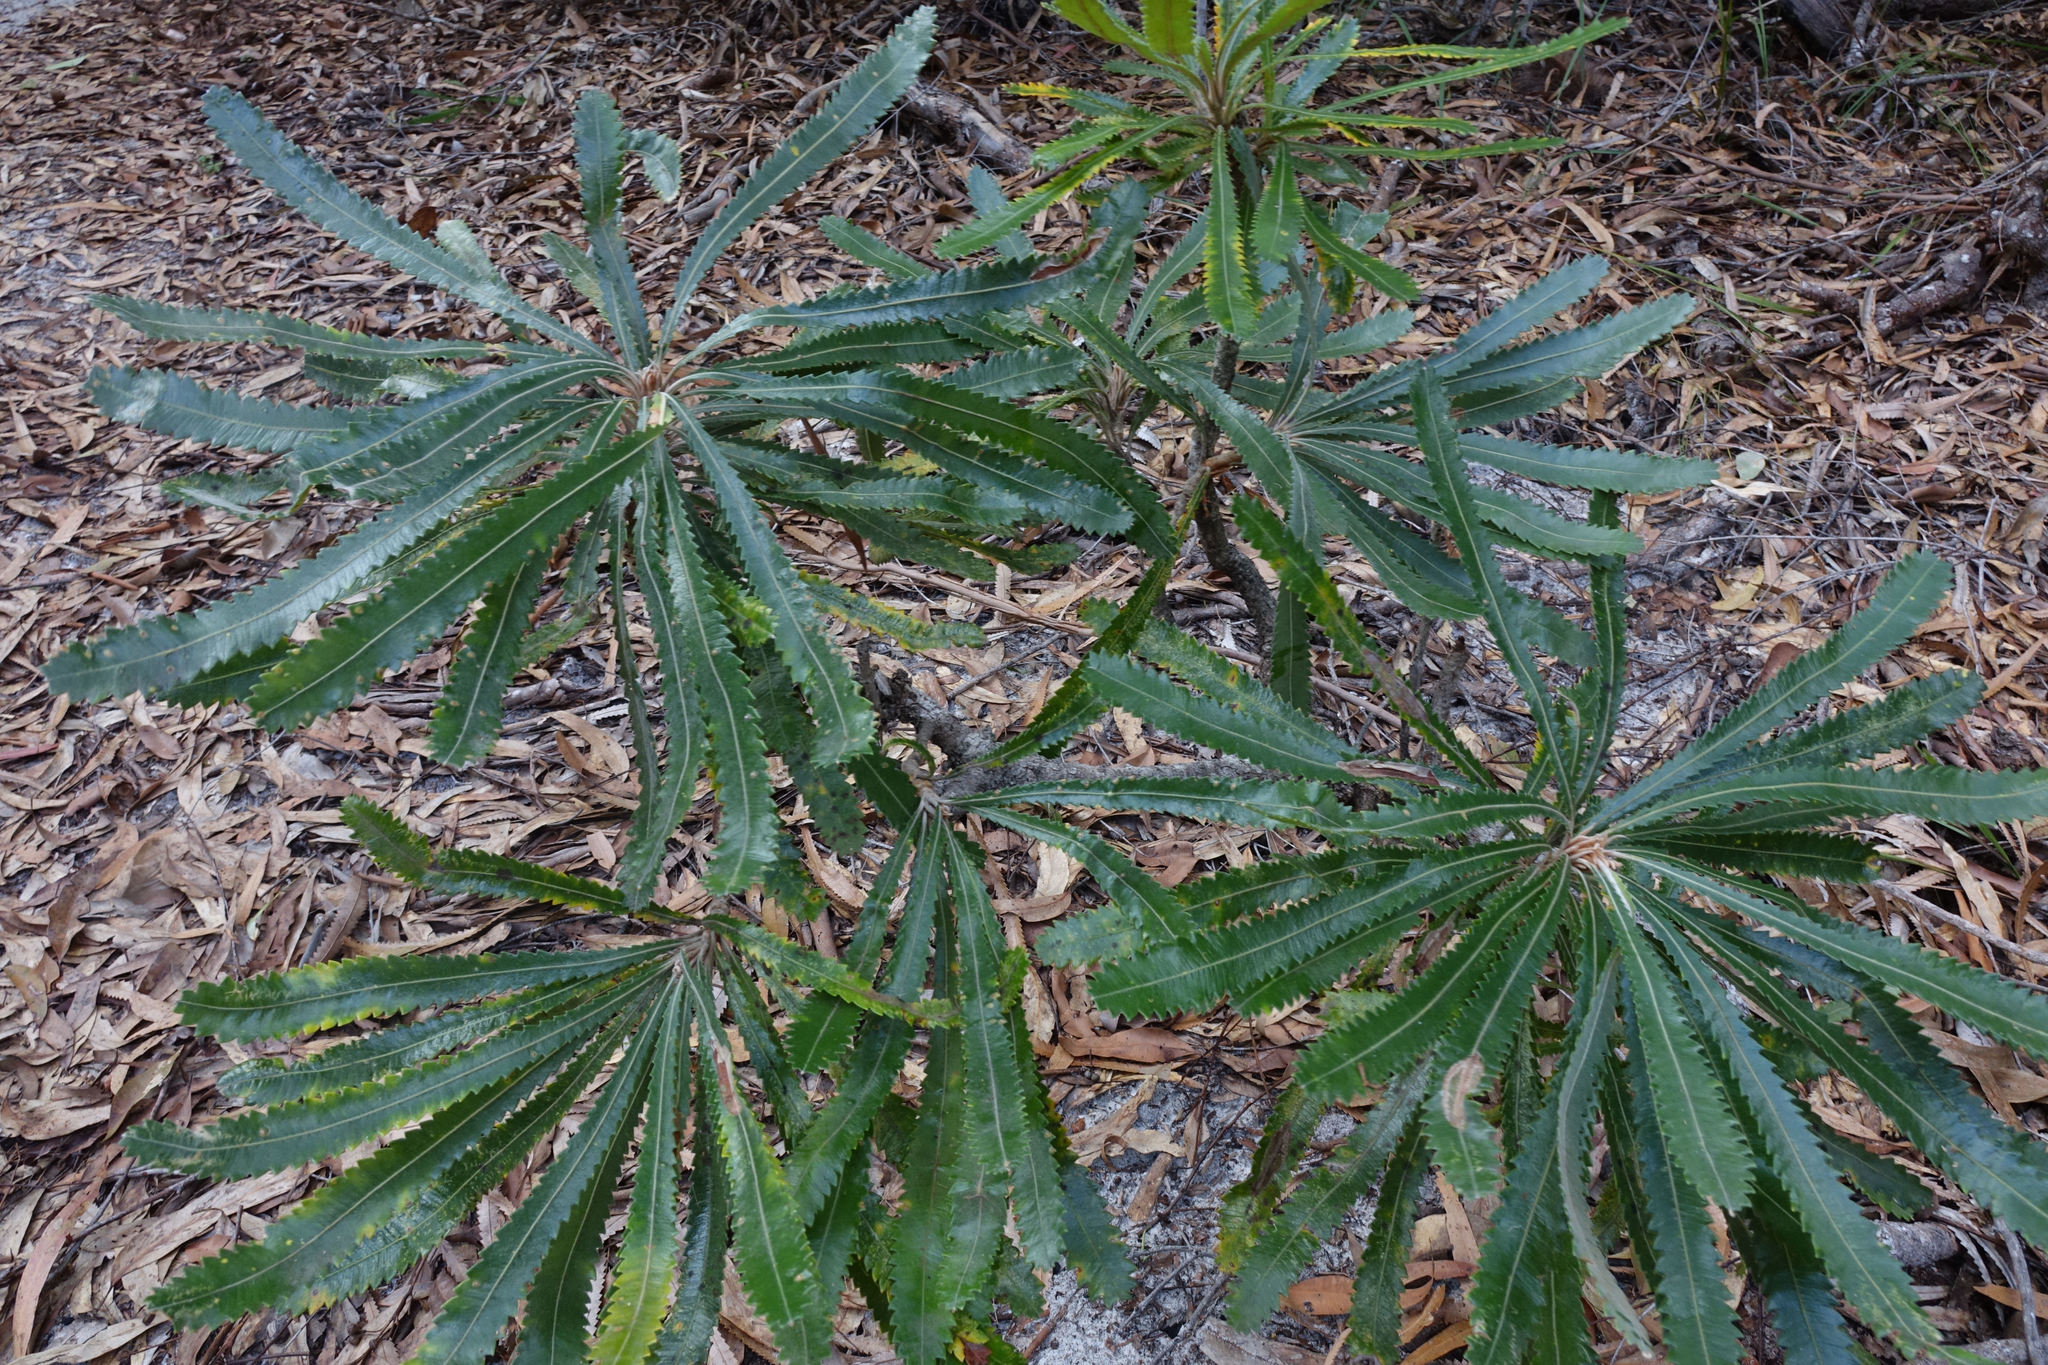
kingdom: Plantae
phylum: Tracheophyta
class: Magnoliopsida
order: Proteales
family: Proteaceae
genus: Banksia
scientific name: Banksia aemula
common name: Wallum banksia
